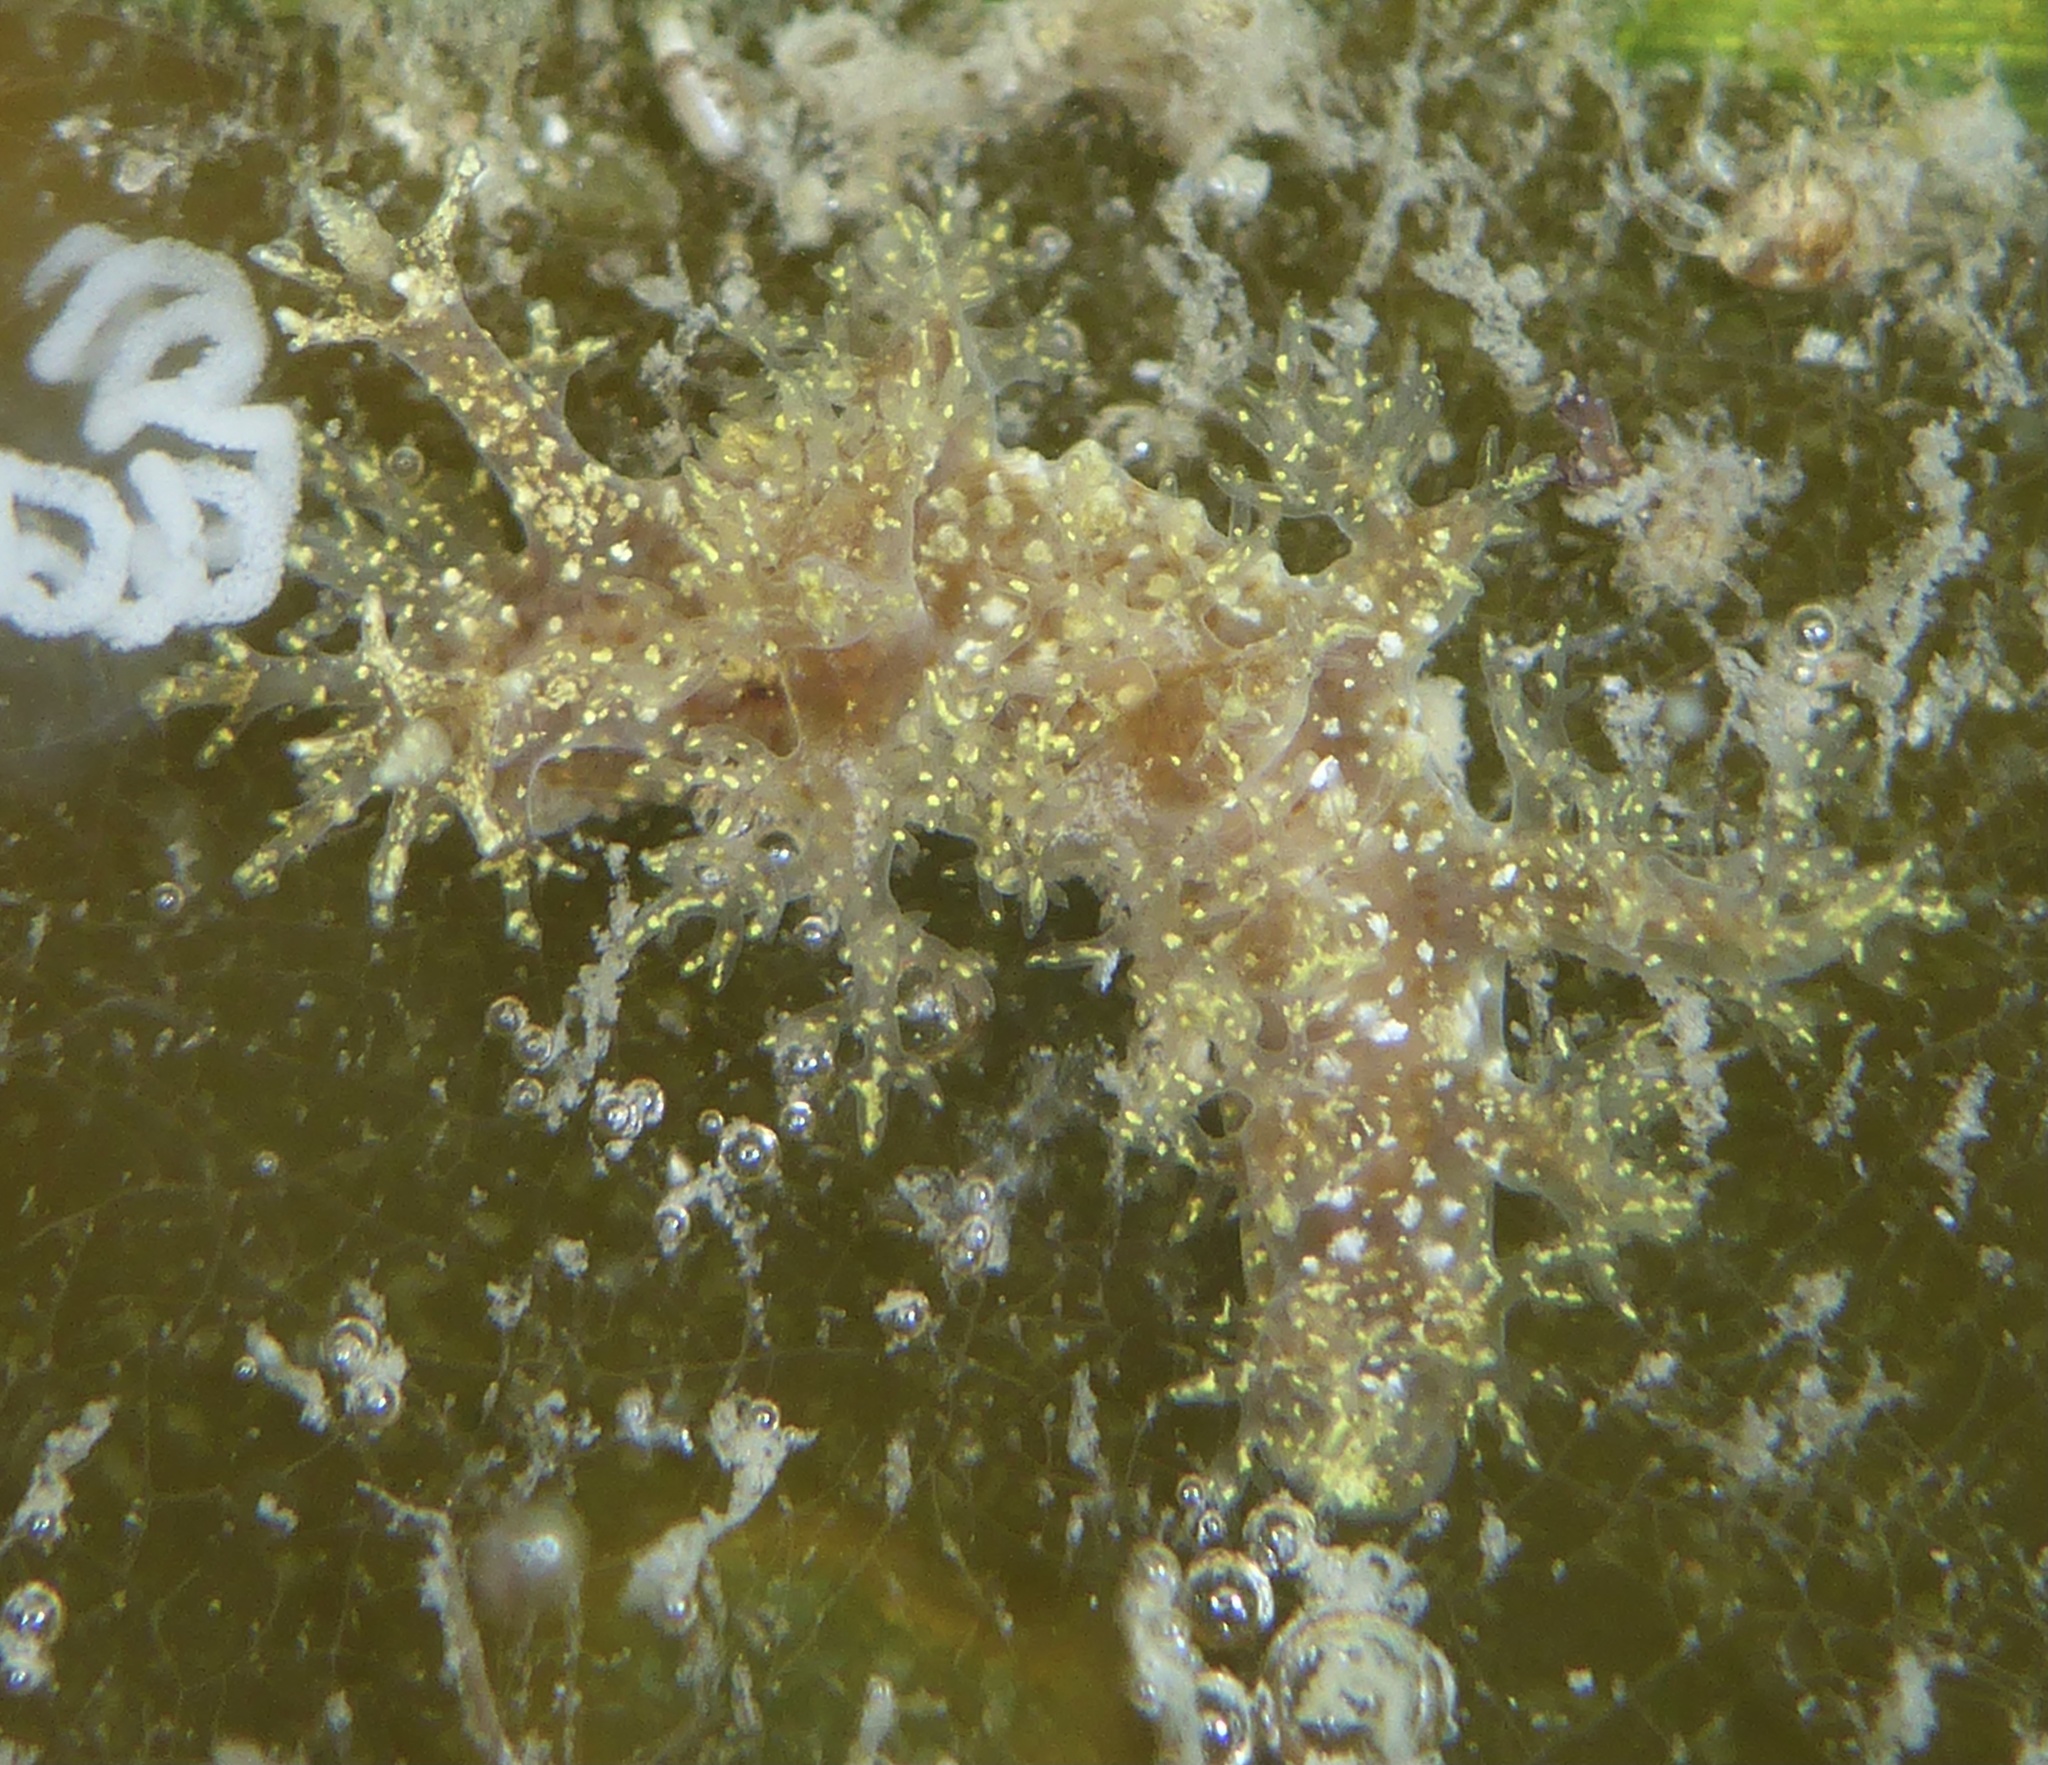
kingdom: Animalia
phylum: Mollusca
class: Gastropoda
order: Nudibranchia
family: Dendronotidae
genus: Dendronotus
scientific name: Dendronotus venustus
